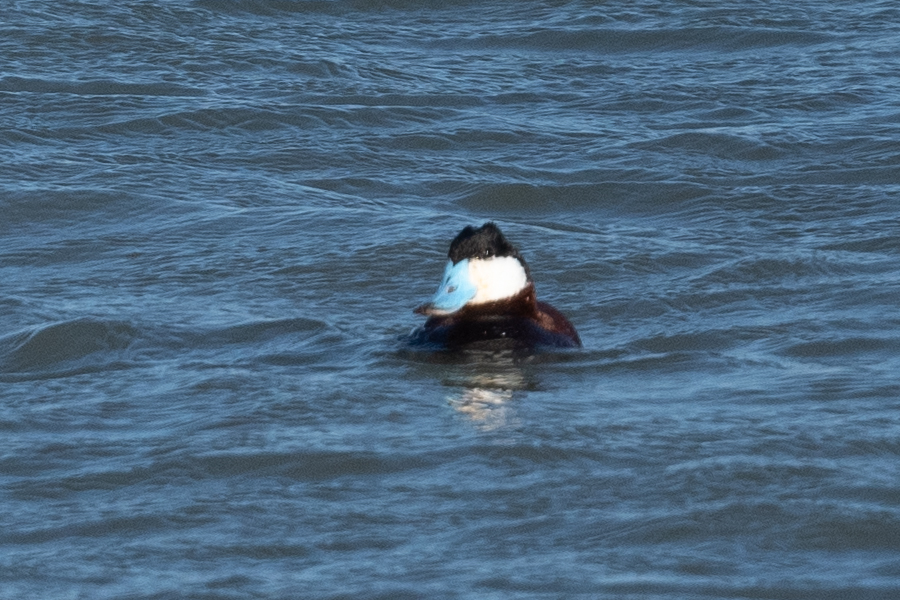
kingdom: Animalia
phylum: Chordata
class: Aves
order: Anseriformes
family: Anatidae
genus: Oxyura
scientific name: Oxyura jamaicensis
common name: Ruddy duck
